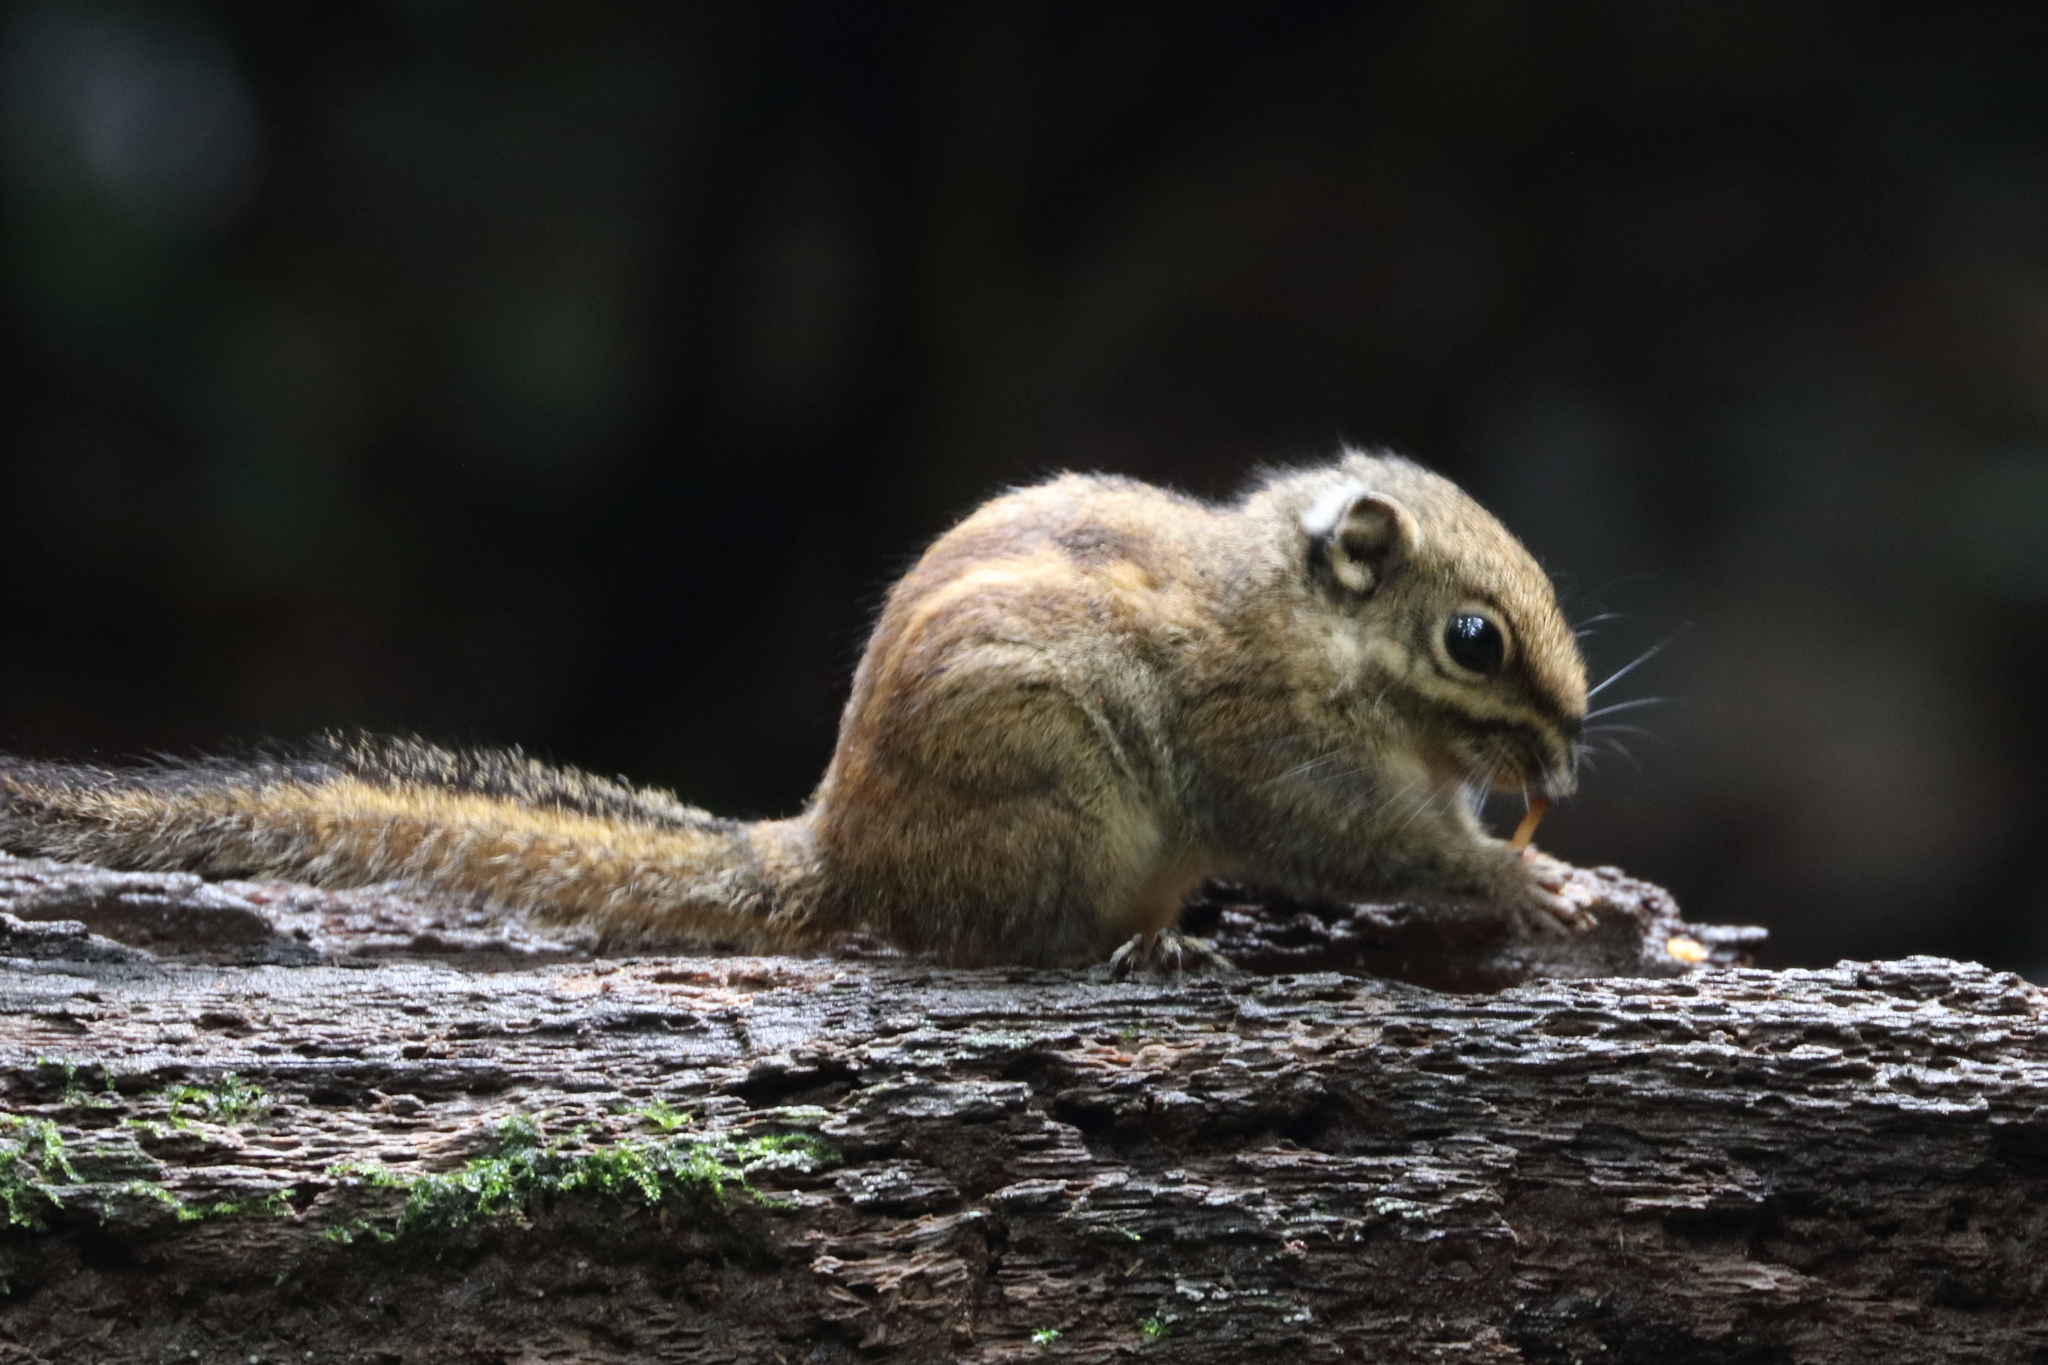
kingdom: Animalia
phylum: Chordata
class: Mammalia
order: Rodentia
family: Sciuridae
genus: Tamiops
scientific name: Tamiops maritimus
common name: Maritime striped squirrel
